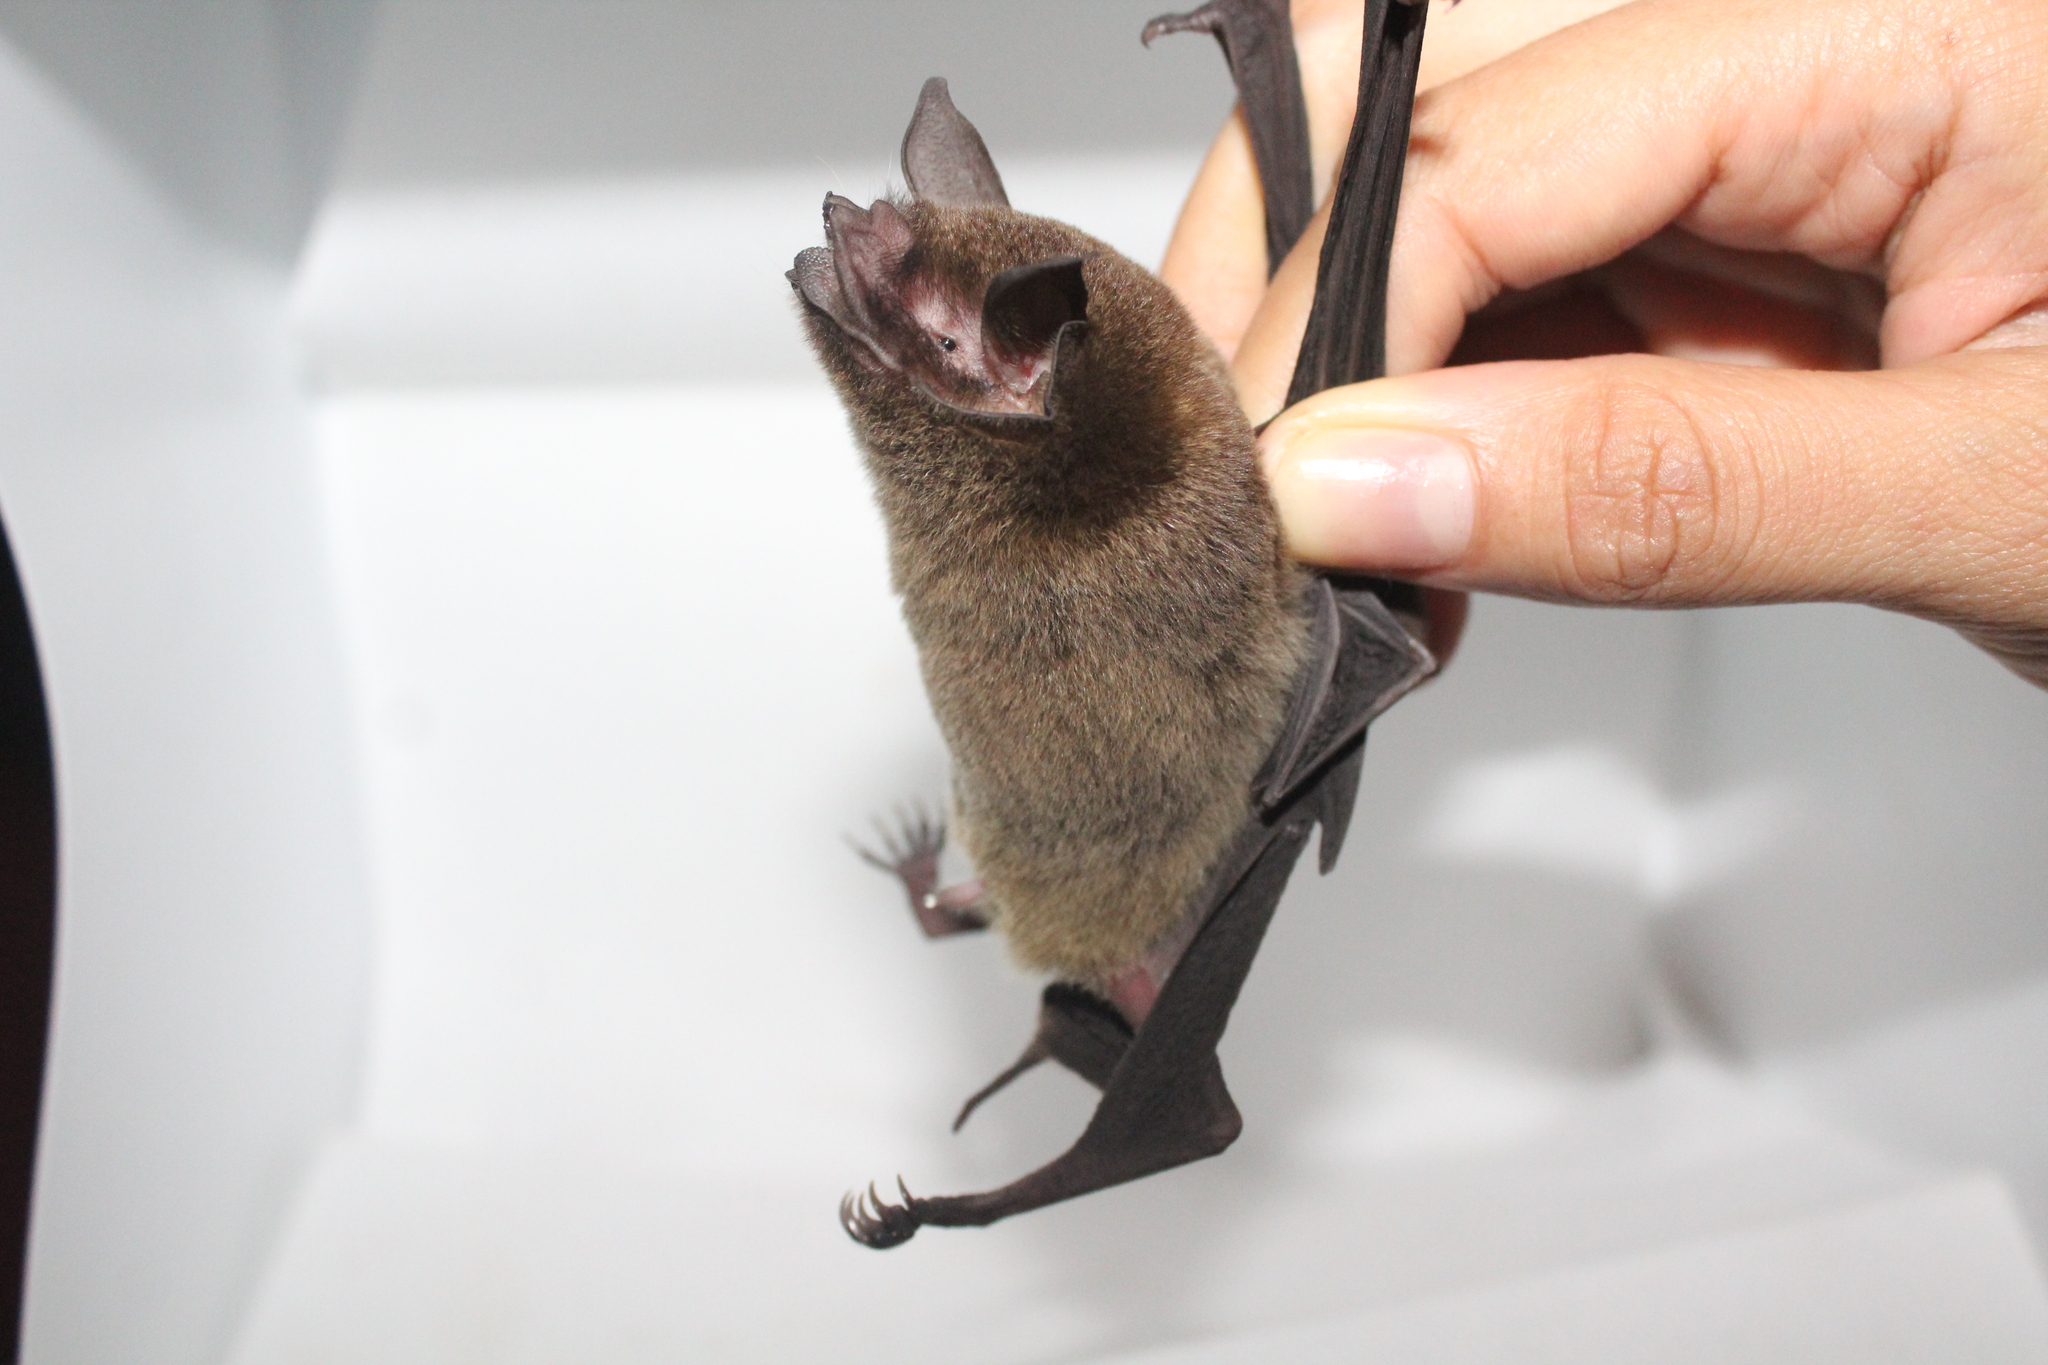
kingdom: Animalia
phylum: Chordata
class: Mammalia
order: Chiroptera
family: Mormoopidae
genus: Pteronotus
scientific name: Pteronotus mesoamericanus
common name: Mesoamerican common mustached bat
